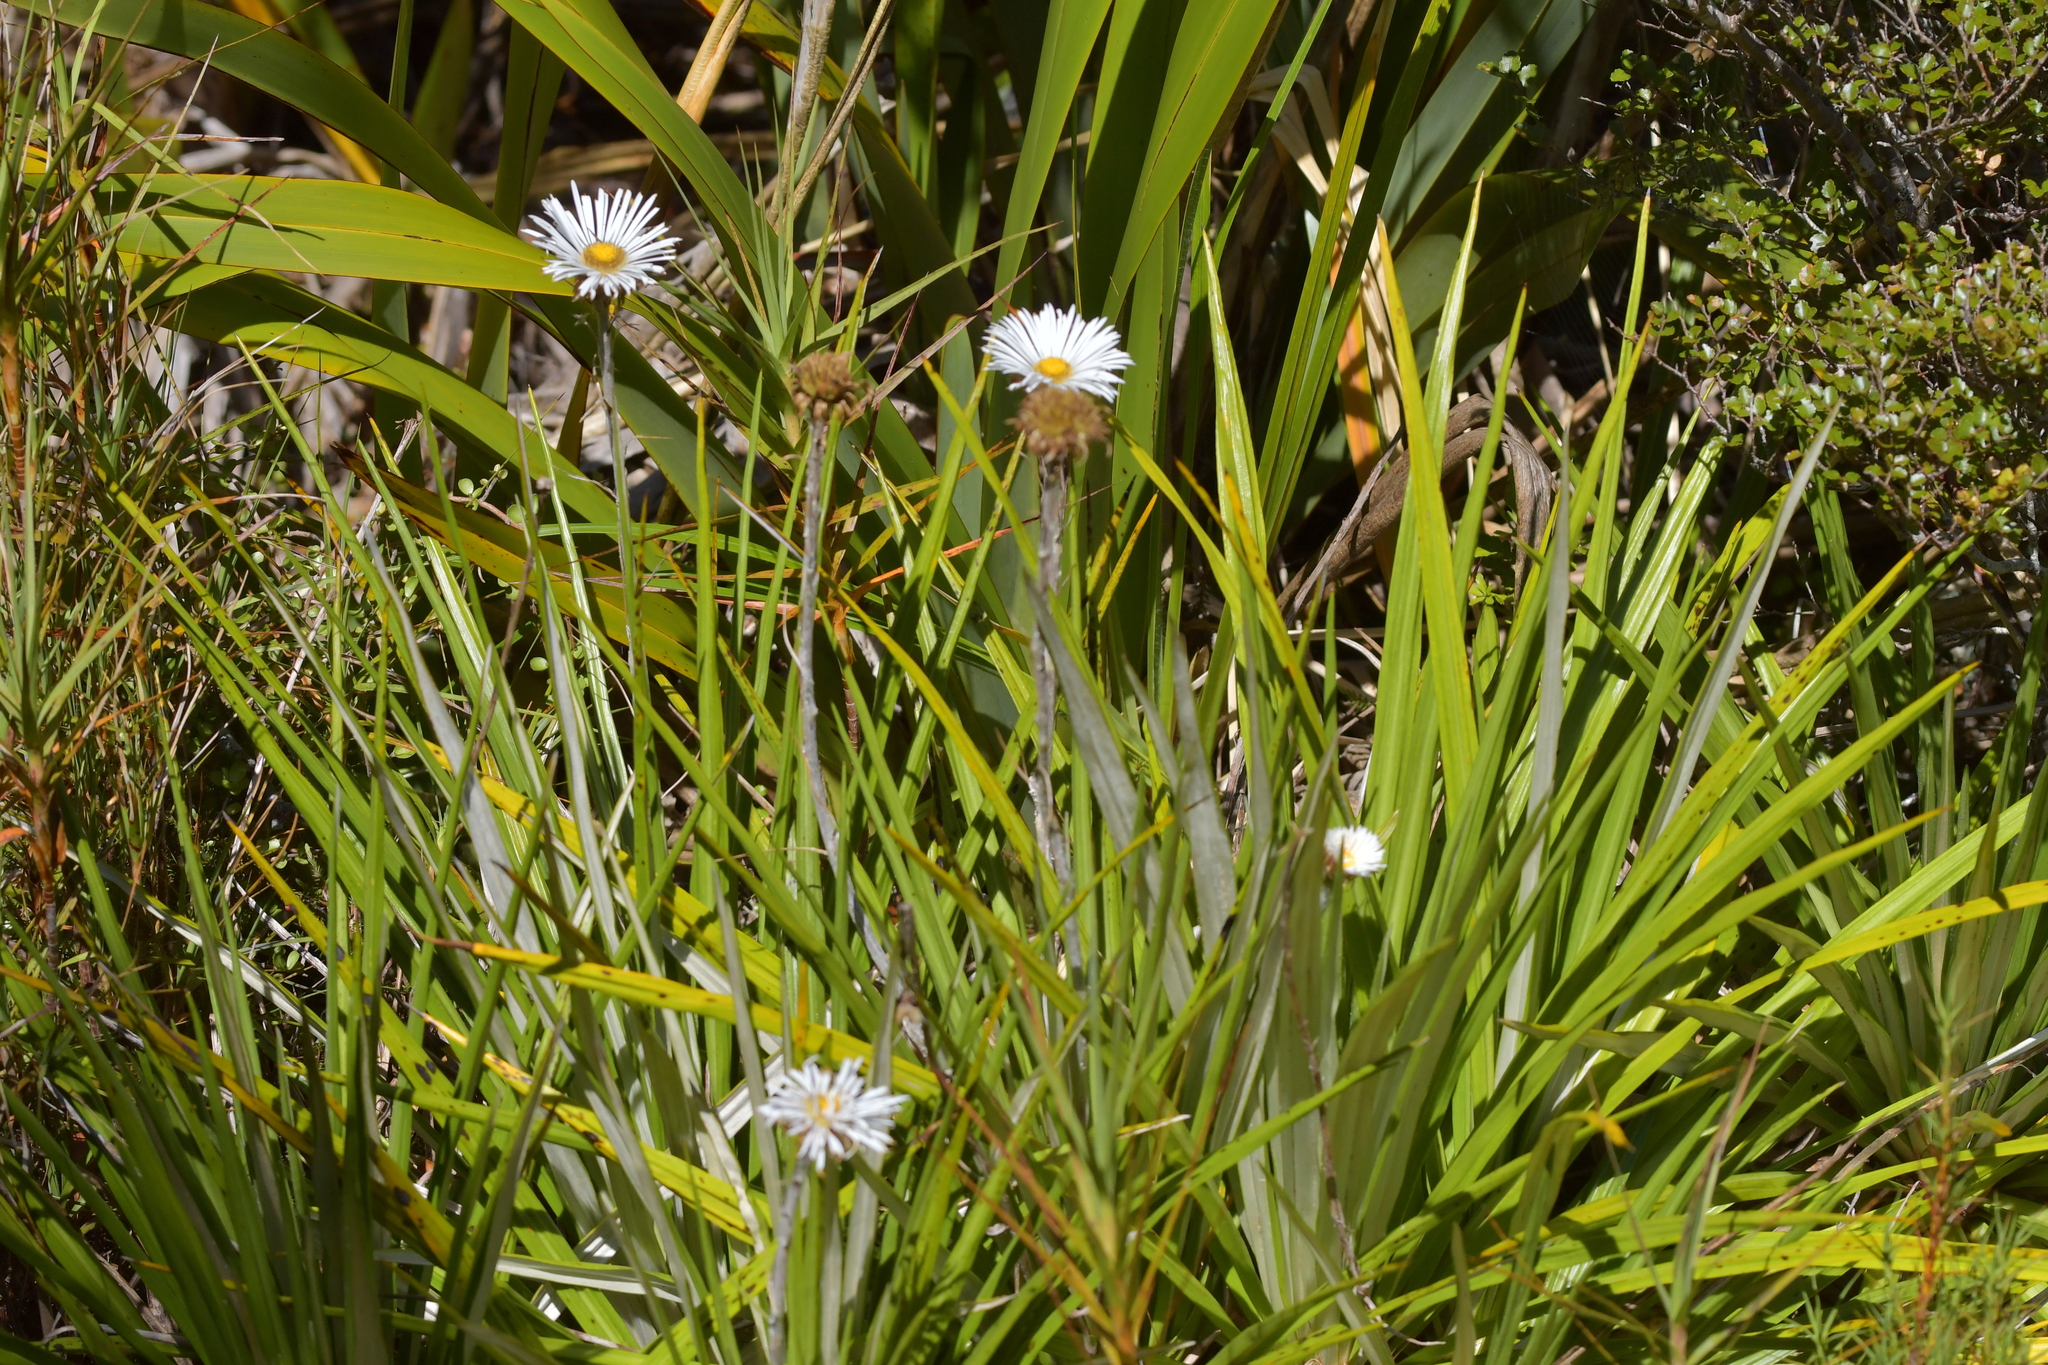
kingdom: Plantae
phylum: Tracheophyta
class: Magnoliopsida
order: Asterales
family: Asteraceae
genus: Celmisia
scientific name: Celmisia petriei
